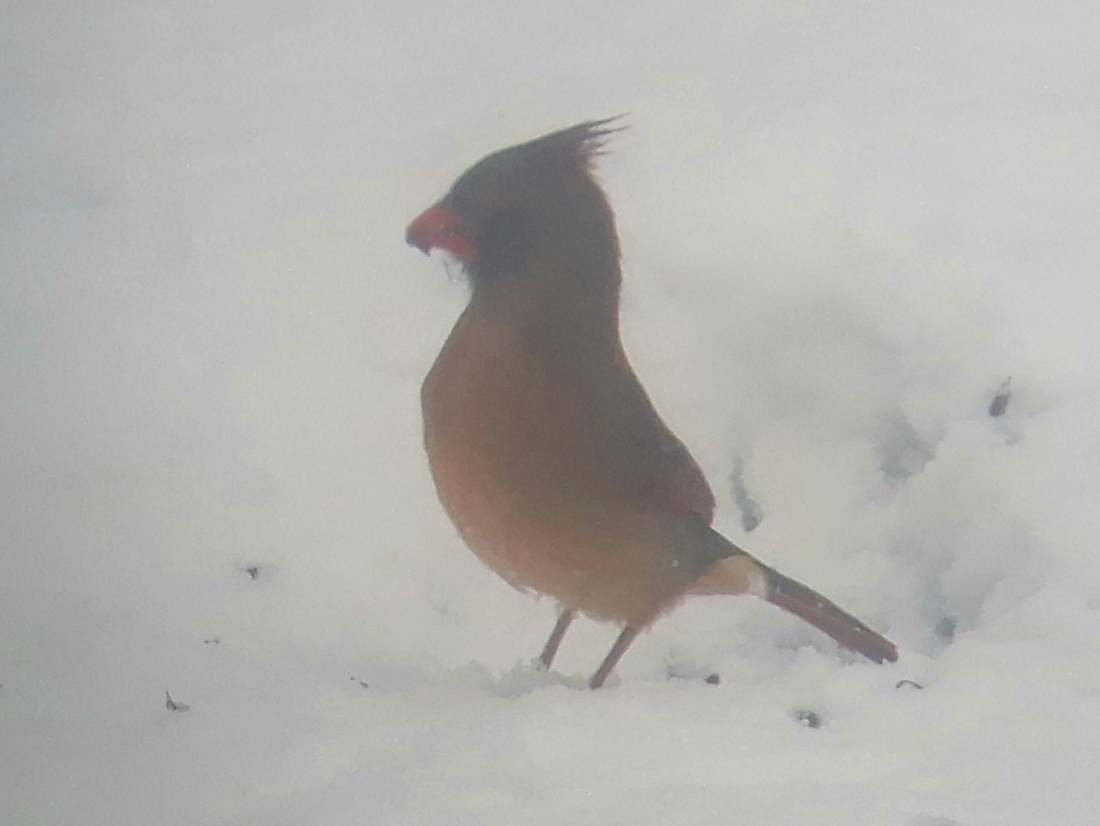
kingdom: Animalia
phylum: Chordata
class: Aves
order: Passeriformes
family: Cardinalidae
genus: Cardinalis
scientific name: Cardinalis cardinalis
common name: Northern cardinal
